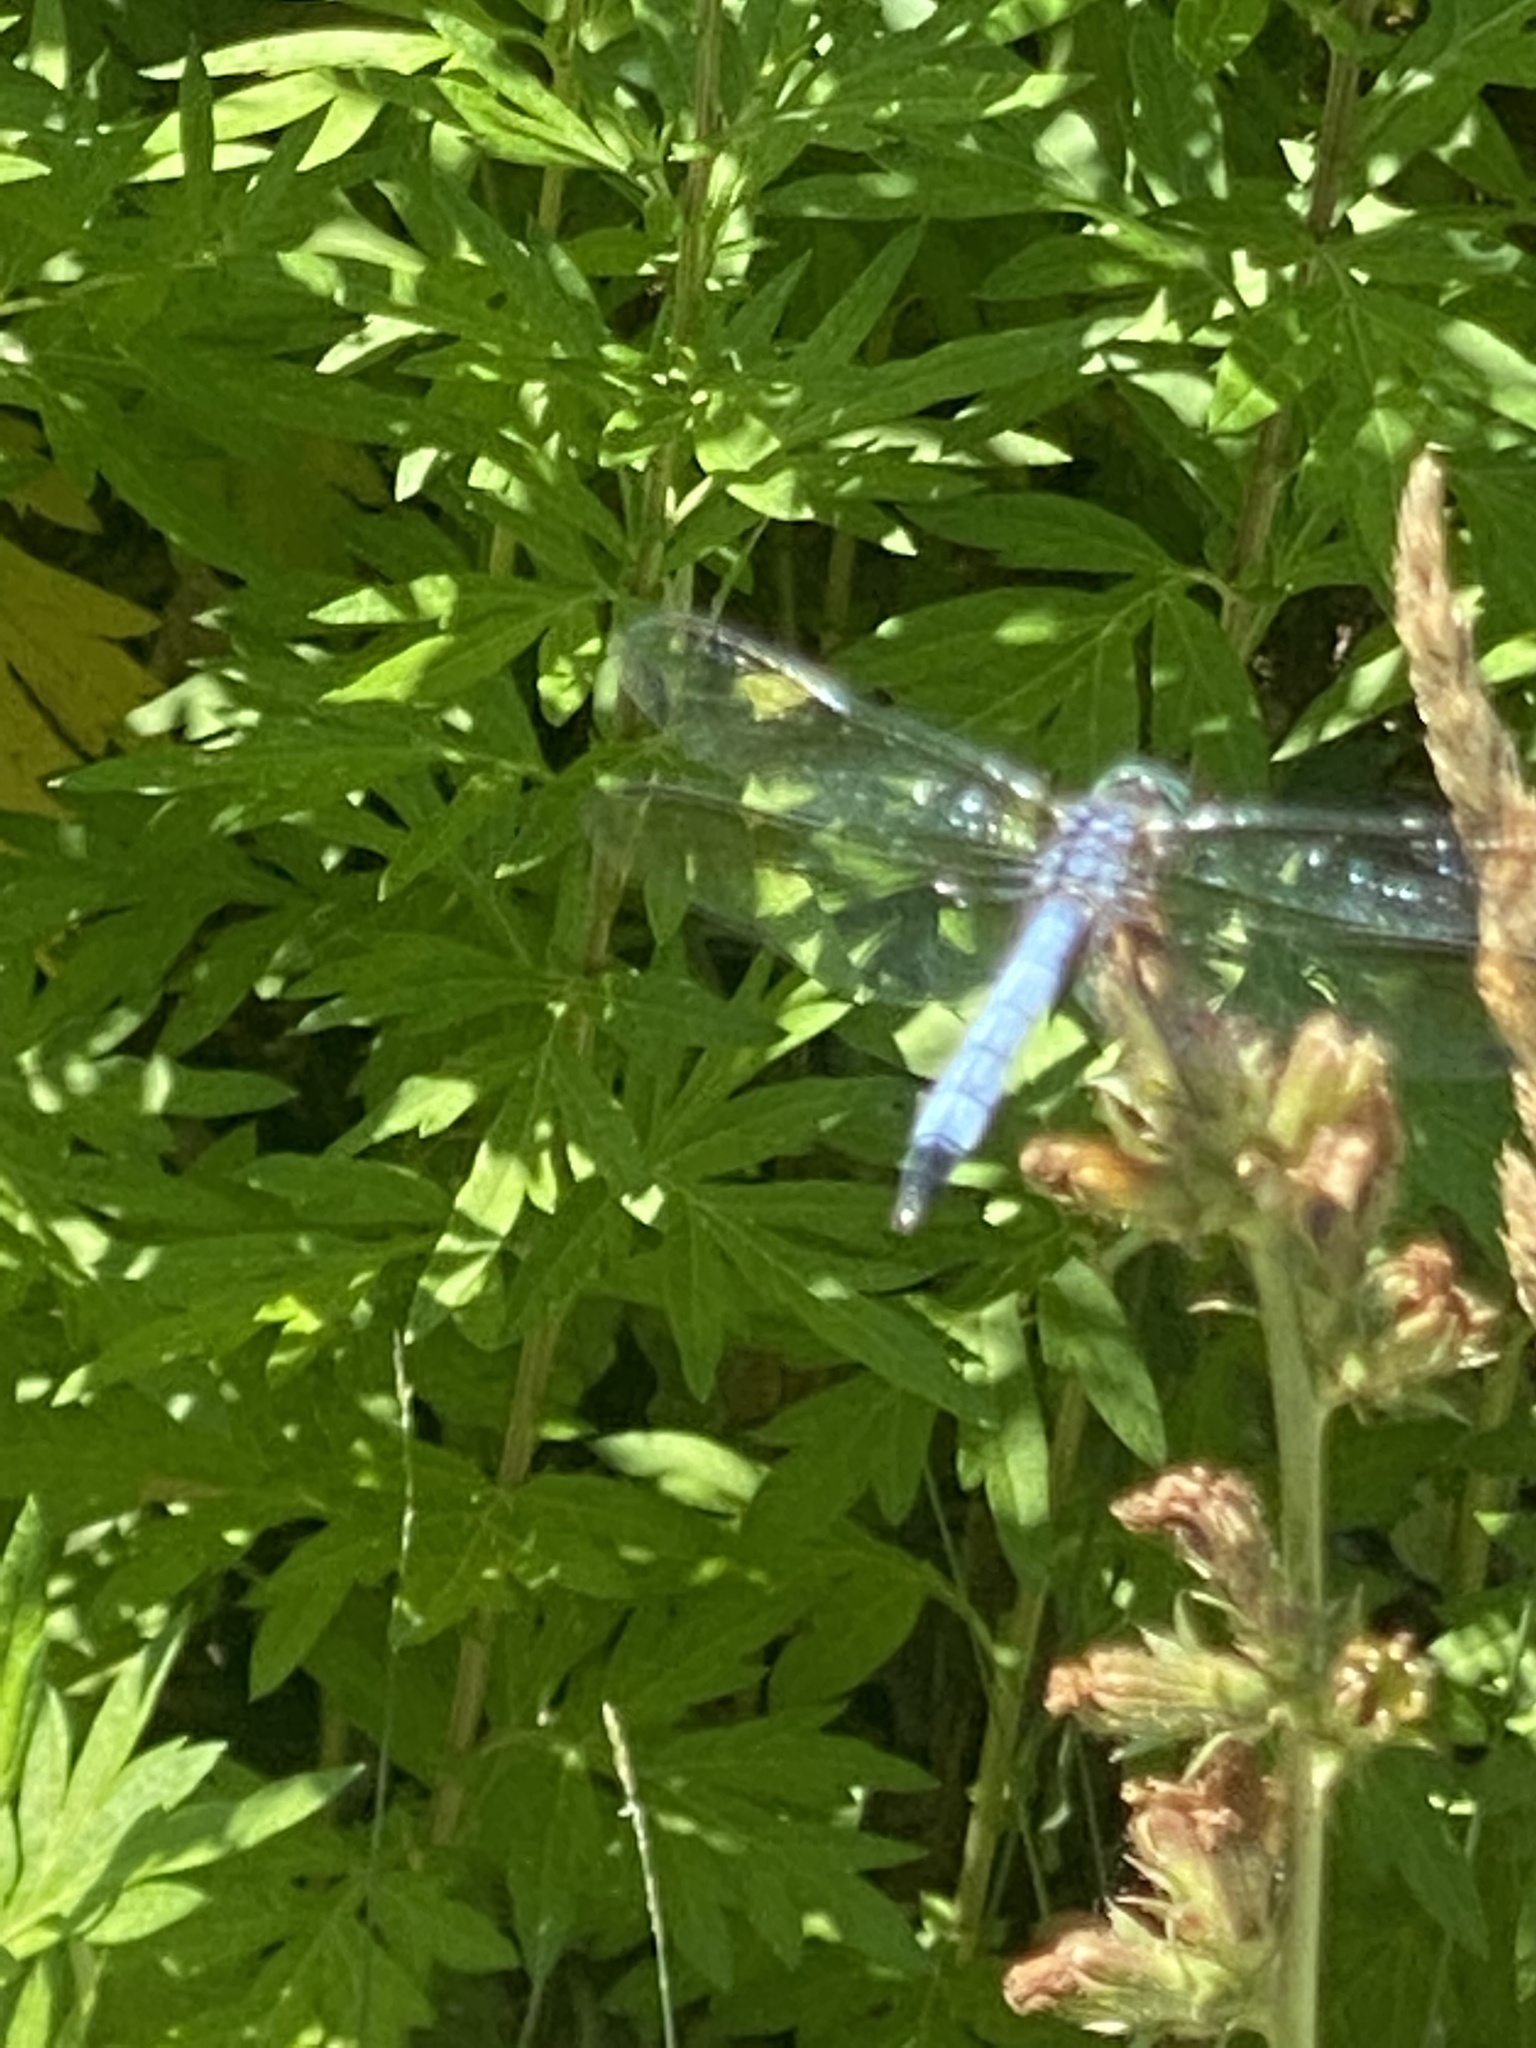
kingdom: Animalia
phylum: Arthropoda
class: Insecta
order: Odonata
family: Libellulidae
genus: Pachydiplax
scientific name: Pachydiplax longipennis
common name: Blue dasher
